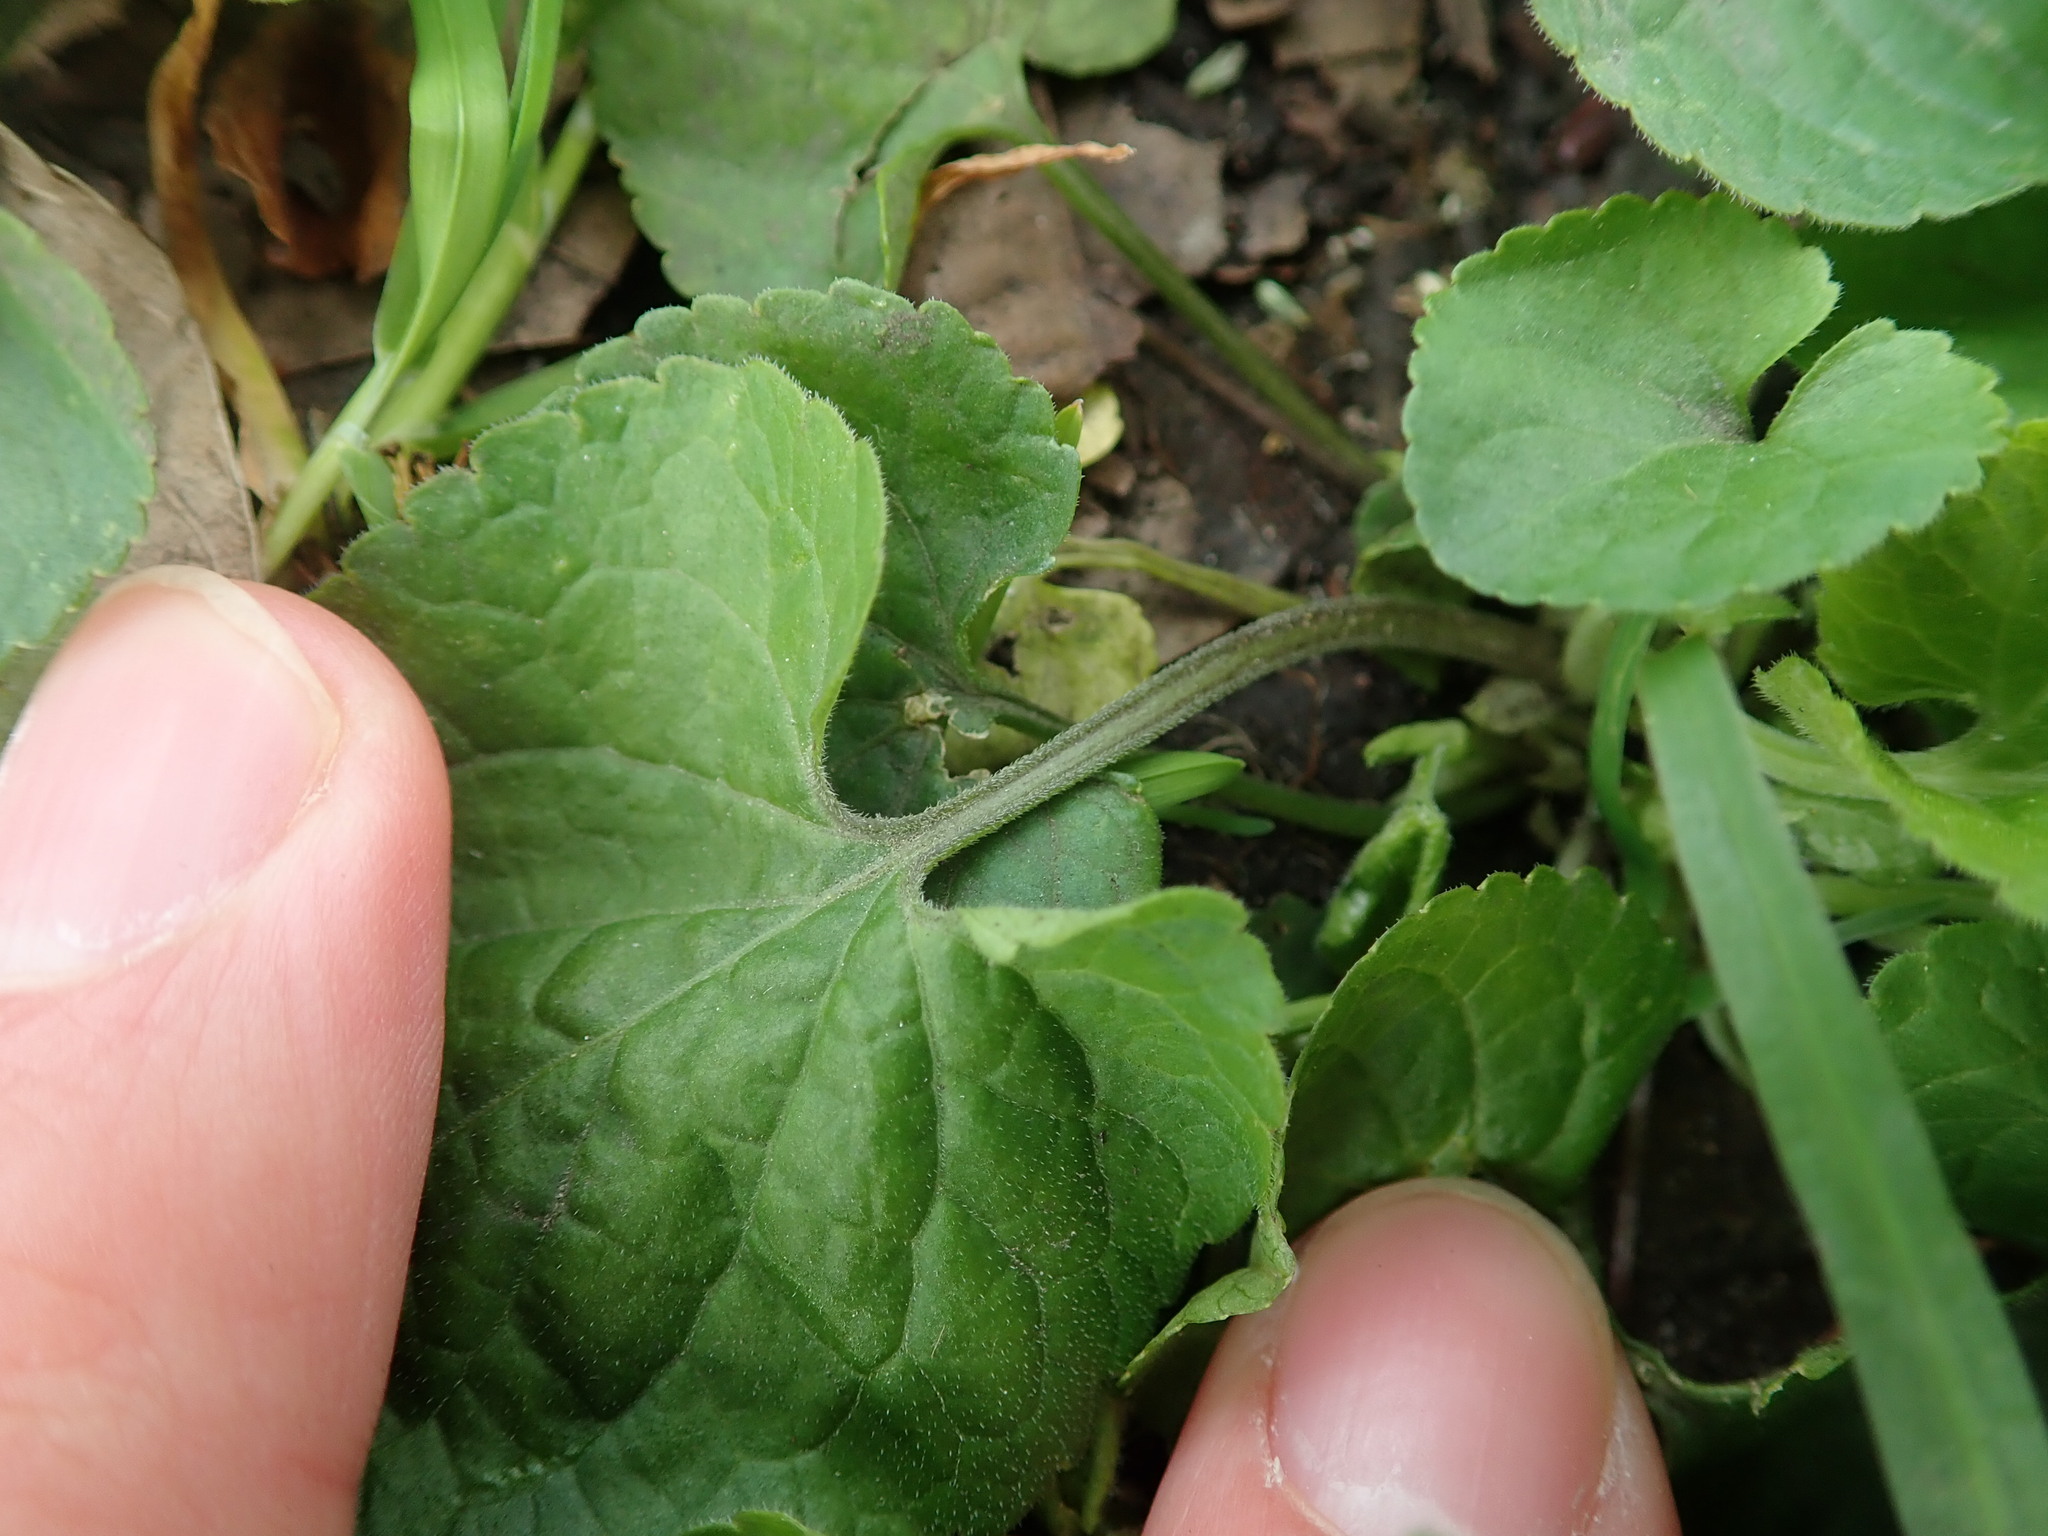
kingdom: Plantae
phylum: Tracheophyta
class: Magnoliopsida
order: Malpighiales
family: Violaceae
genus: Viola
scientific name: Viola odorata
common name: Sweet violet
